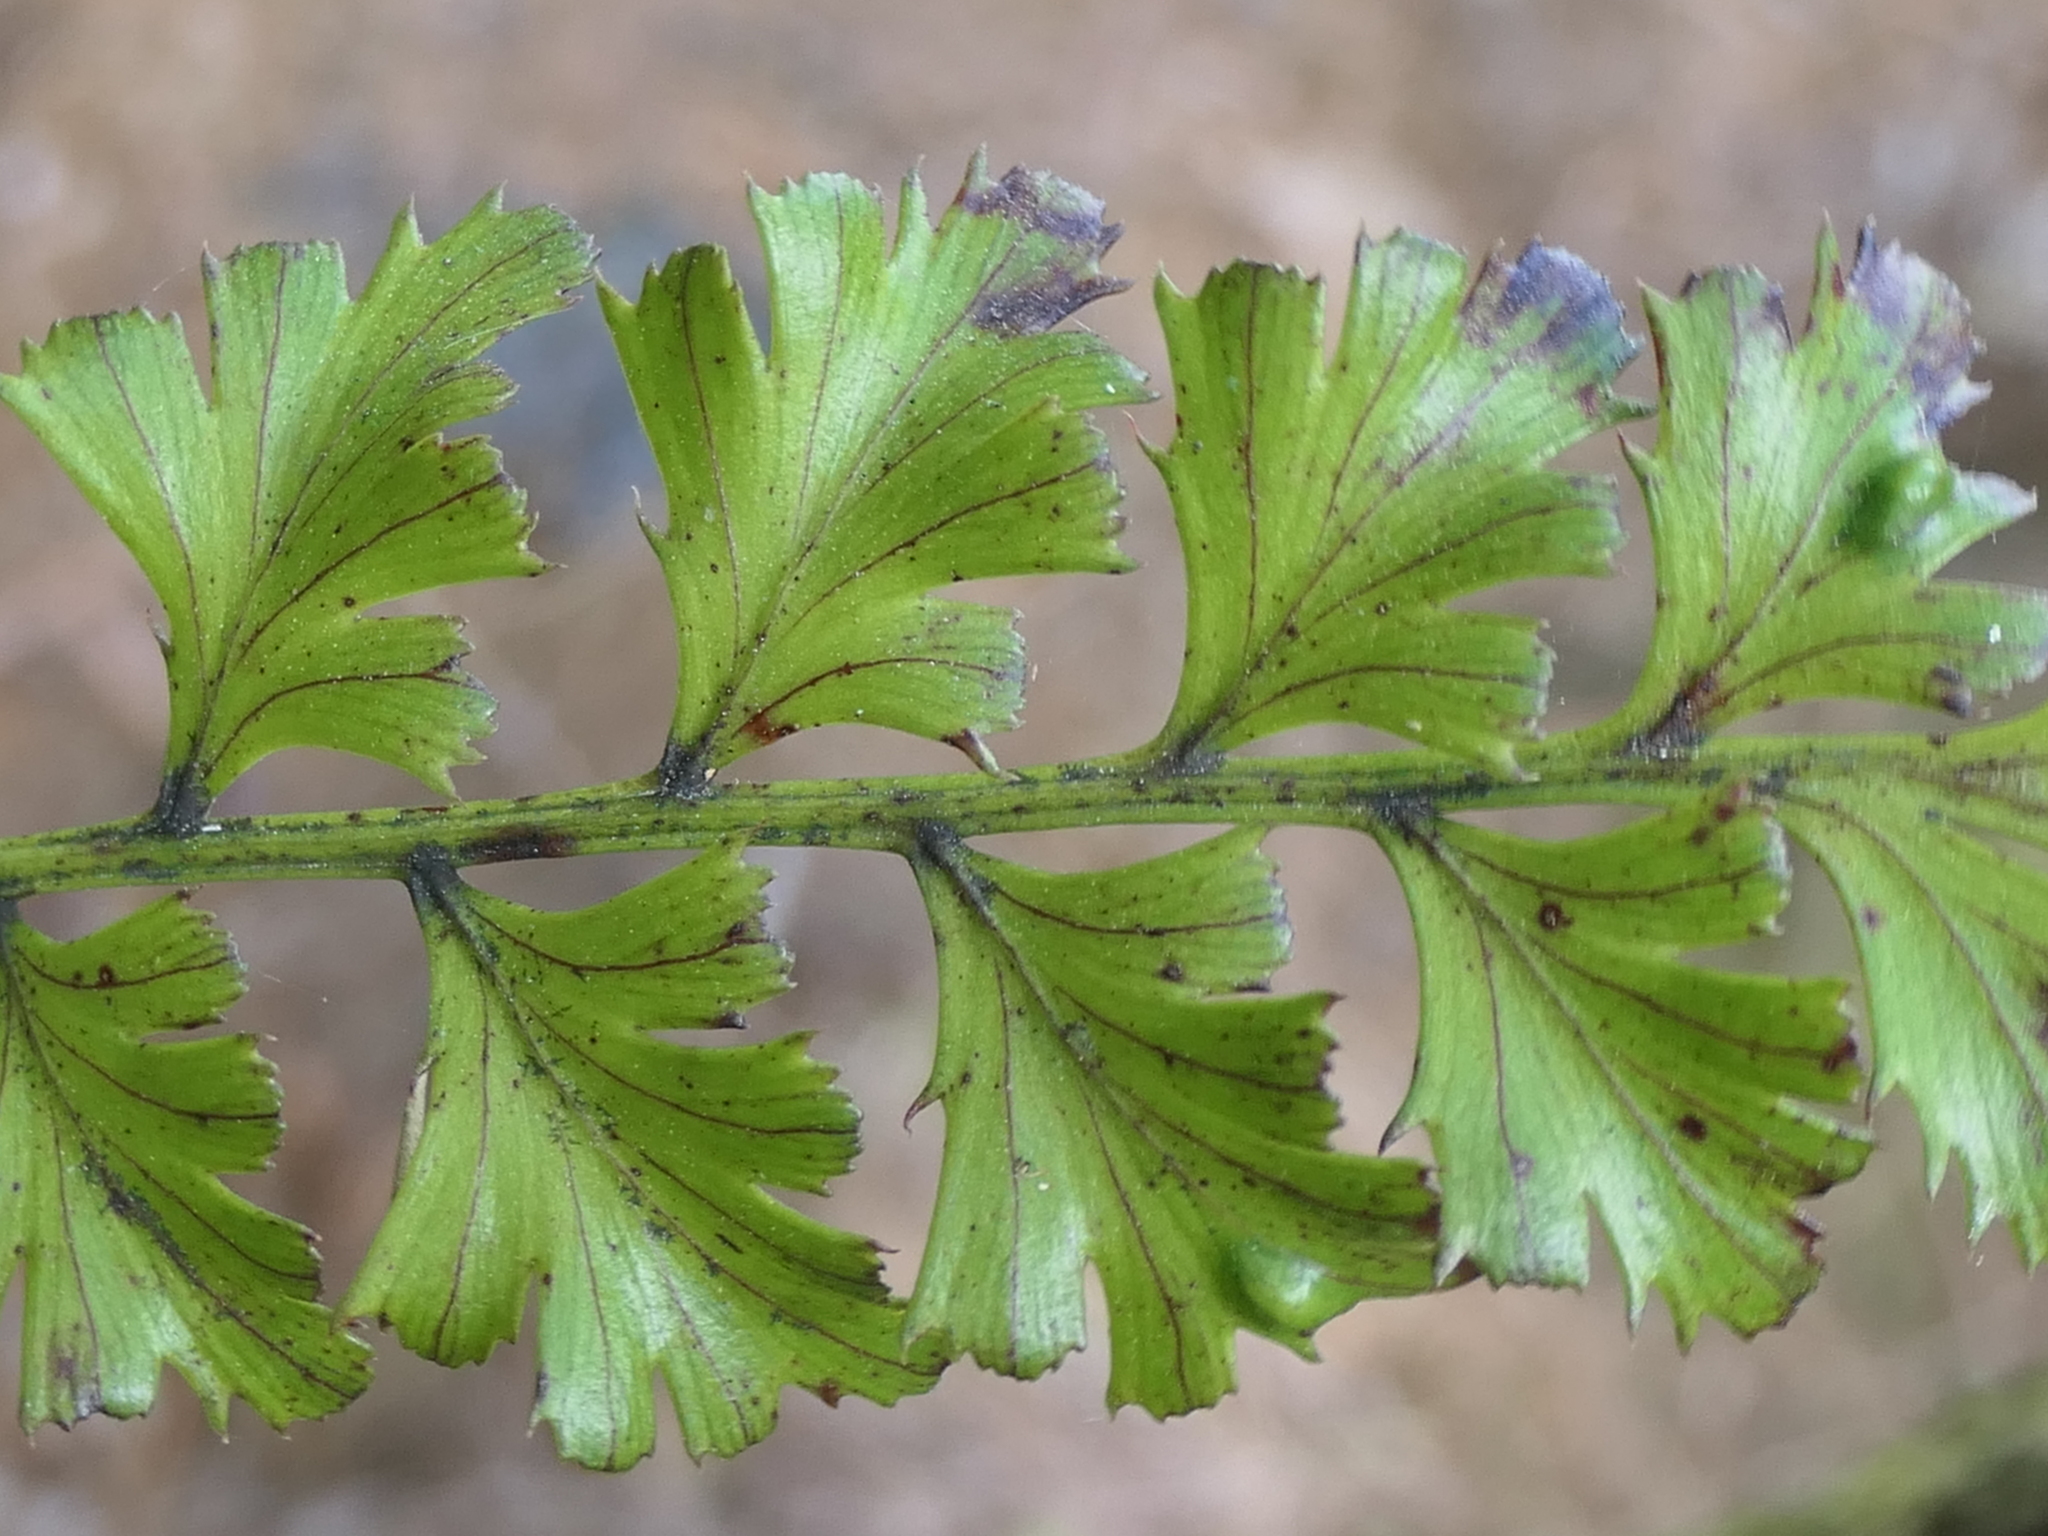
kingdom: Plantae
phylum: Tracheophyta
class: Pinopsida
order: Pinales
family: Phyllocladaceae
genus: Phyllocladus
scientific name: Phyllocladus trichomanoides
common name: Celery pine
